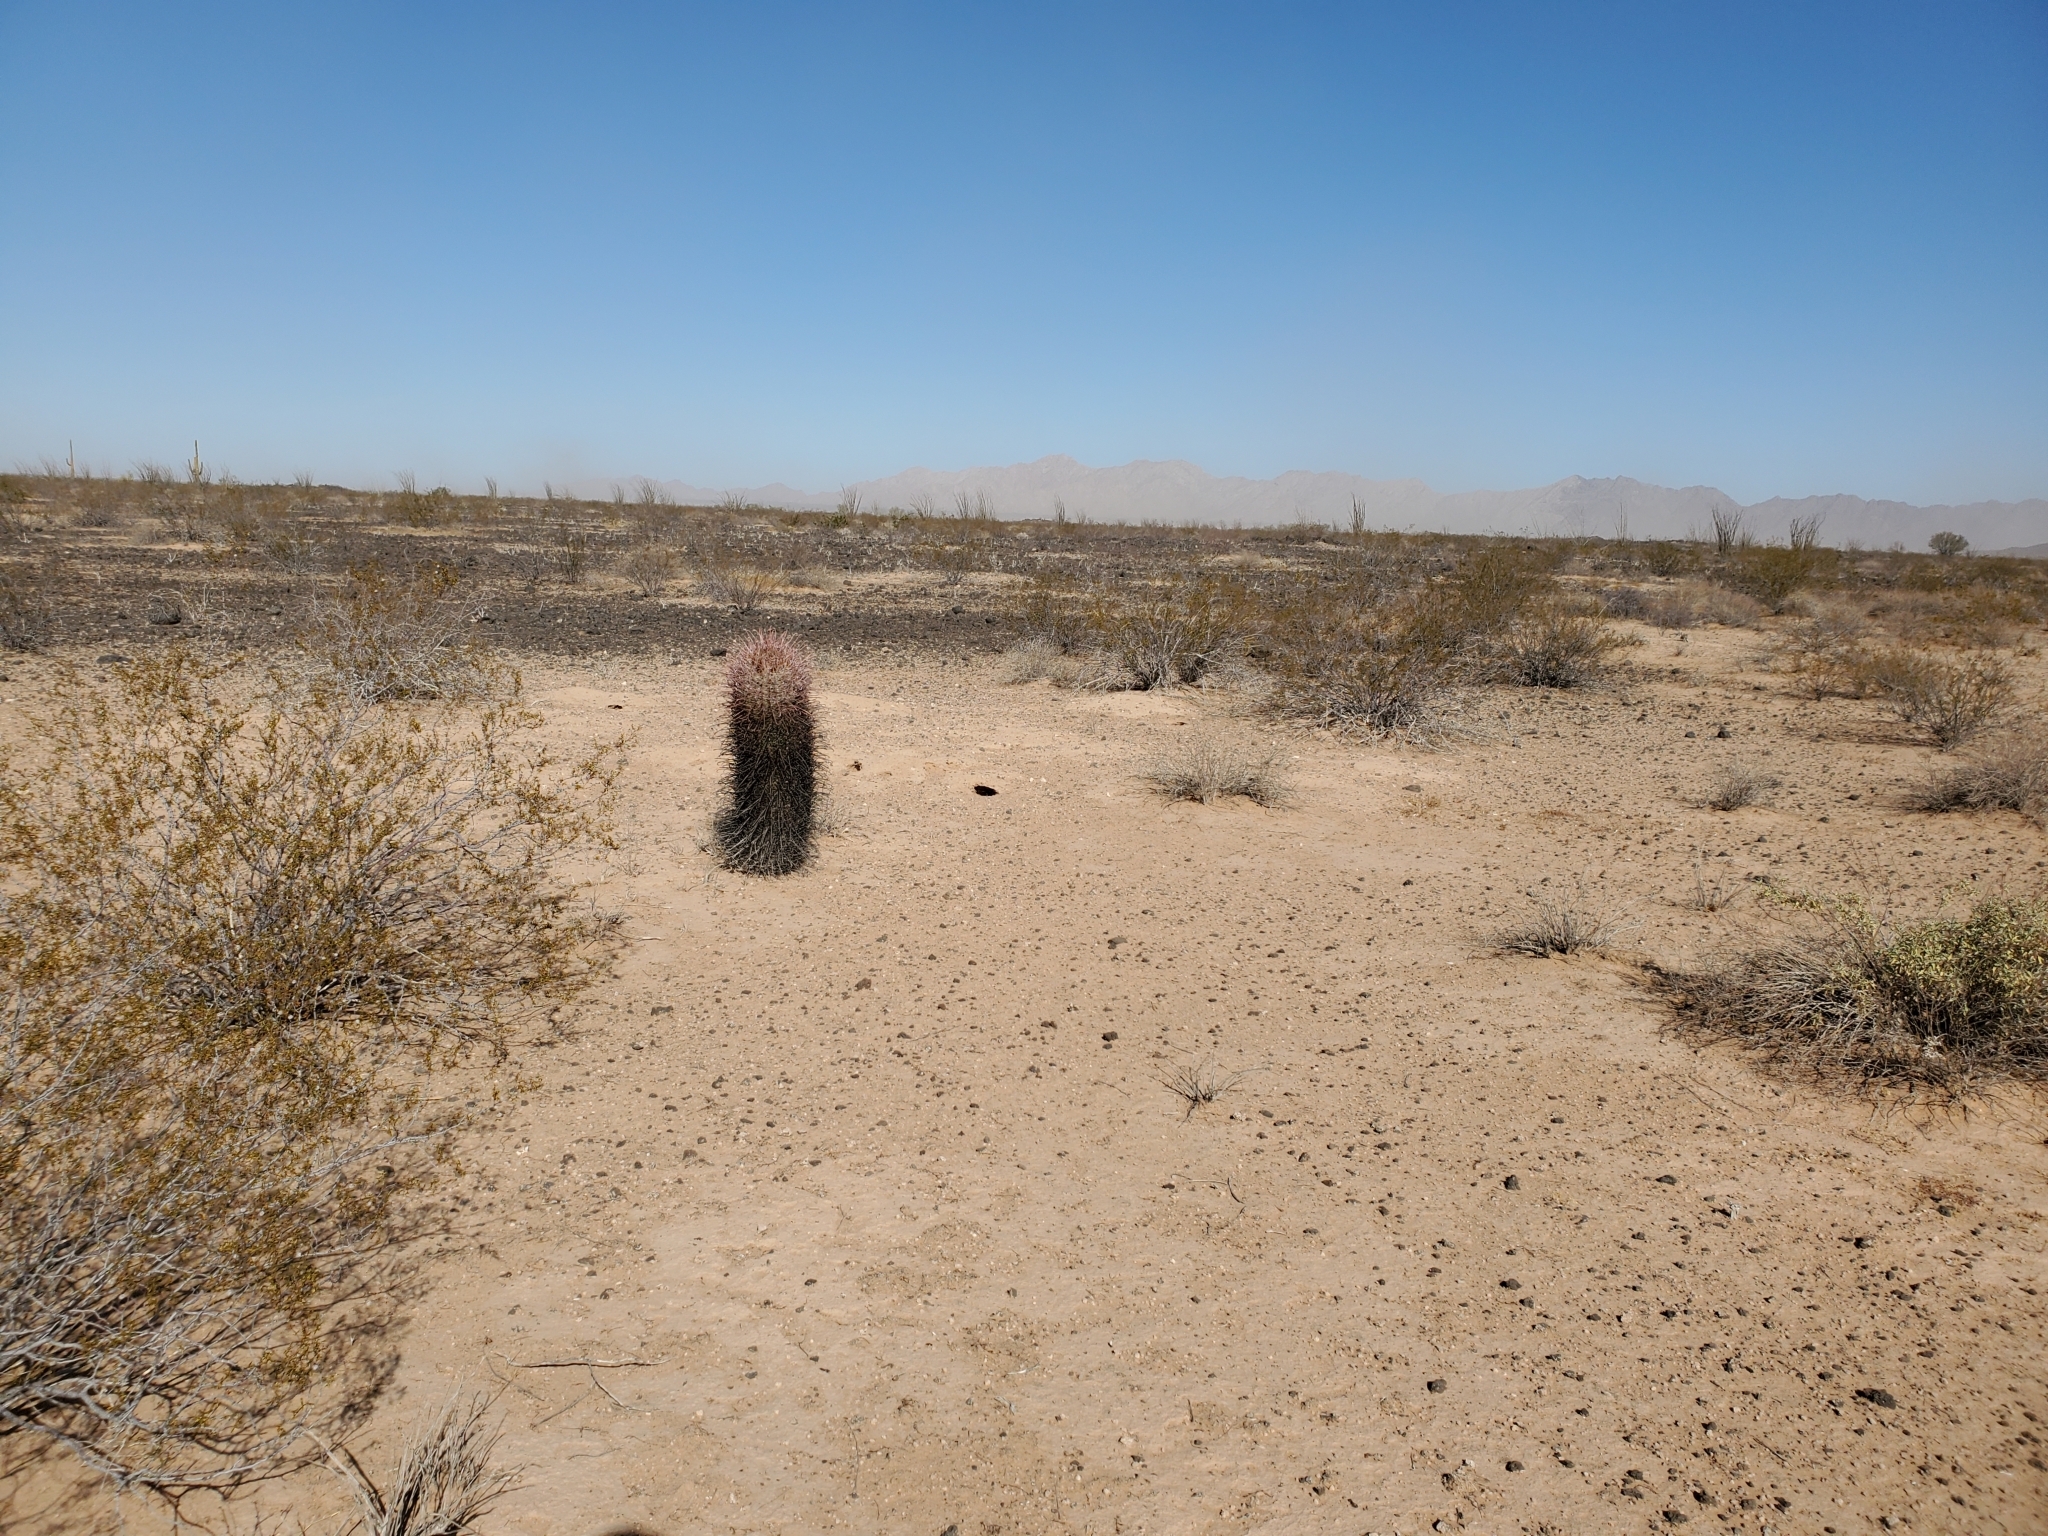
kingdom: Plantae
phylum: Tracheophyta
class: Magnoliopsida
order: Caryophyllales
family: Cactaceae
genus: Ferocactus
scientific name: Ferocactus cylindraceus
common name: California barrel cactus
